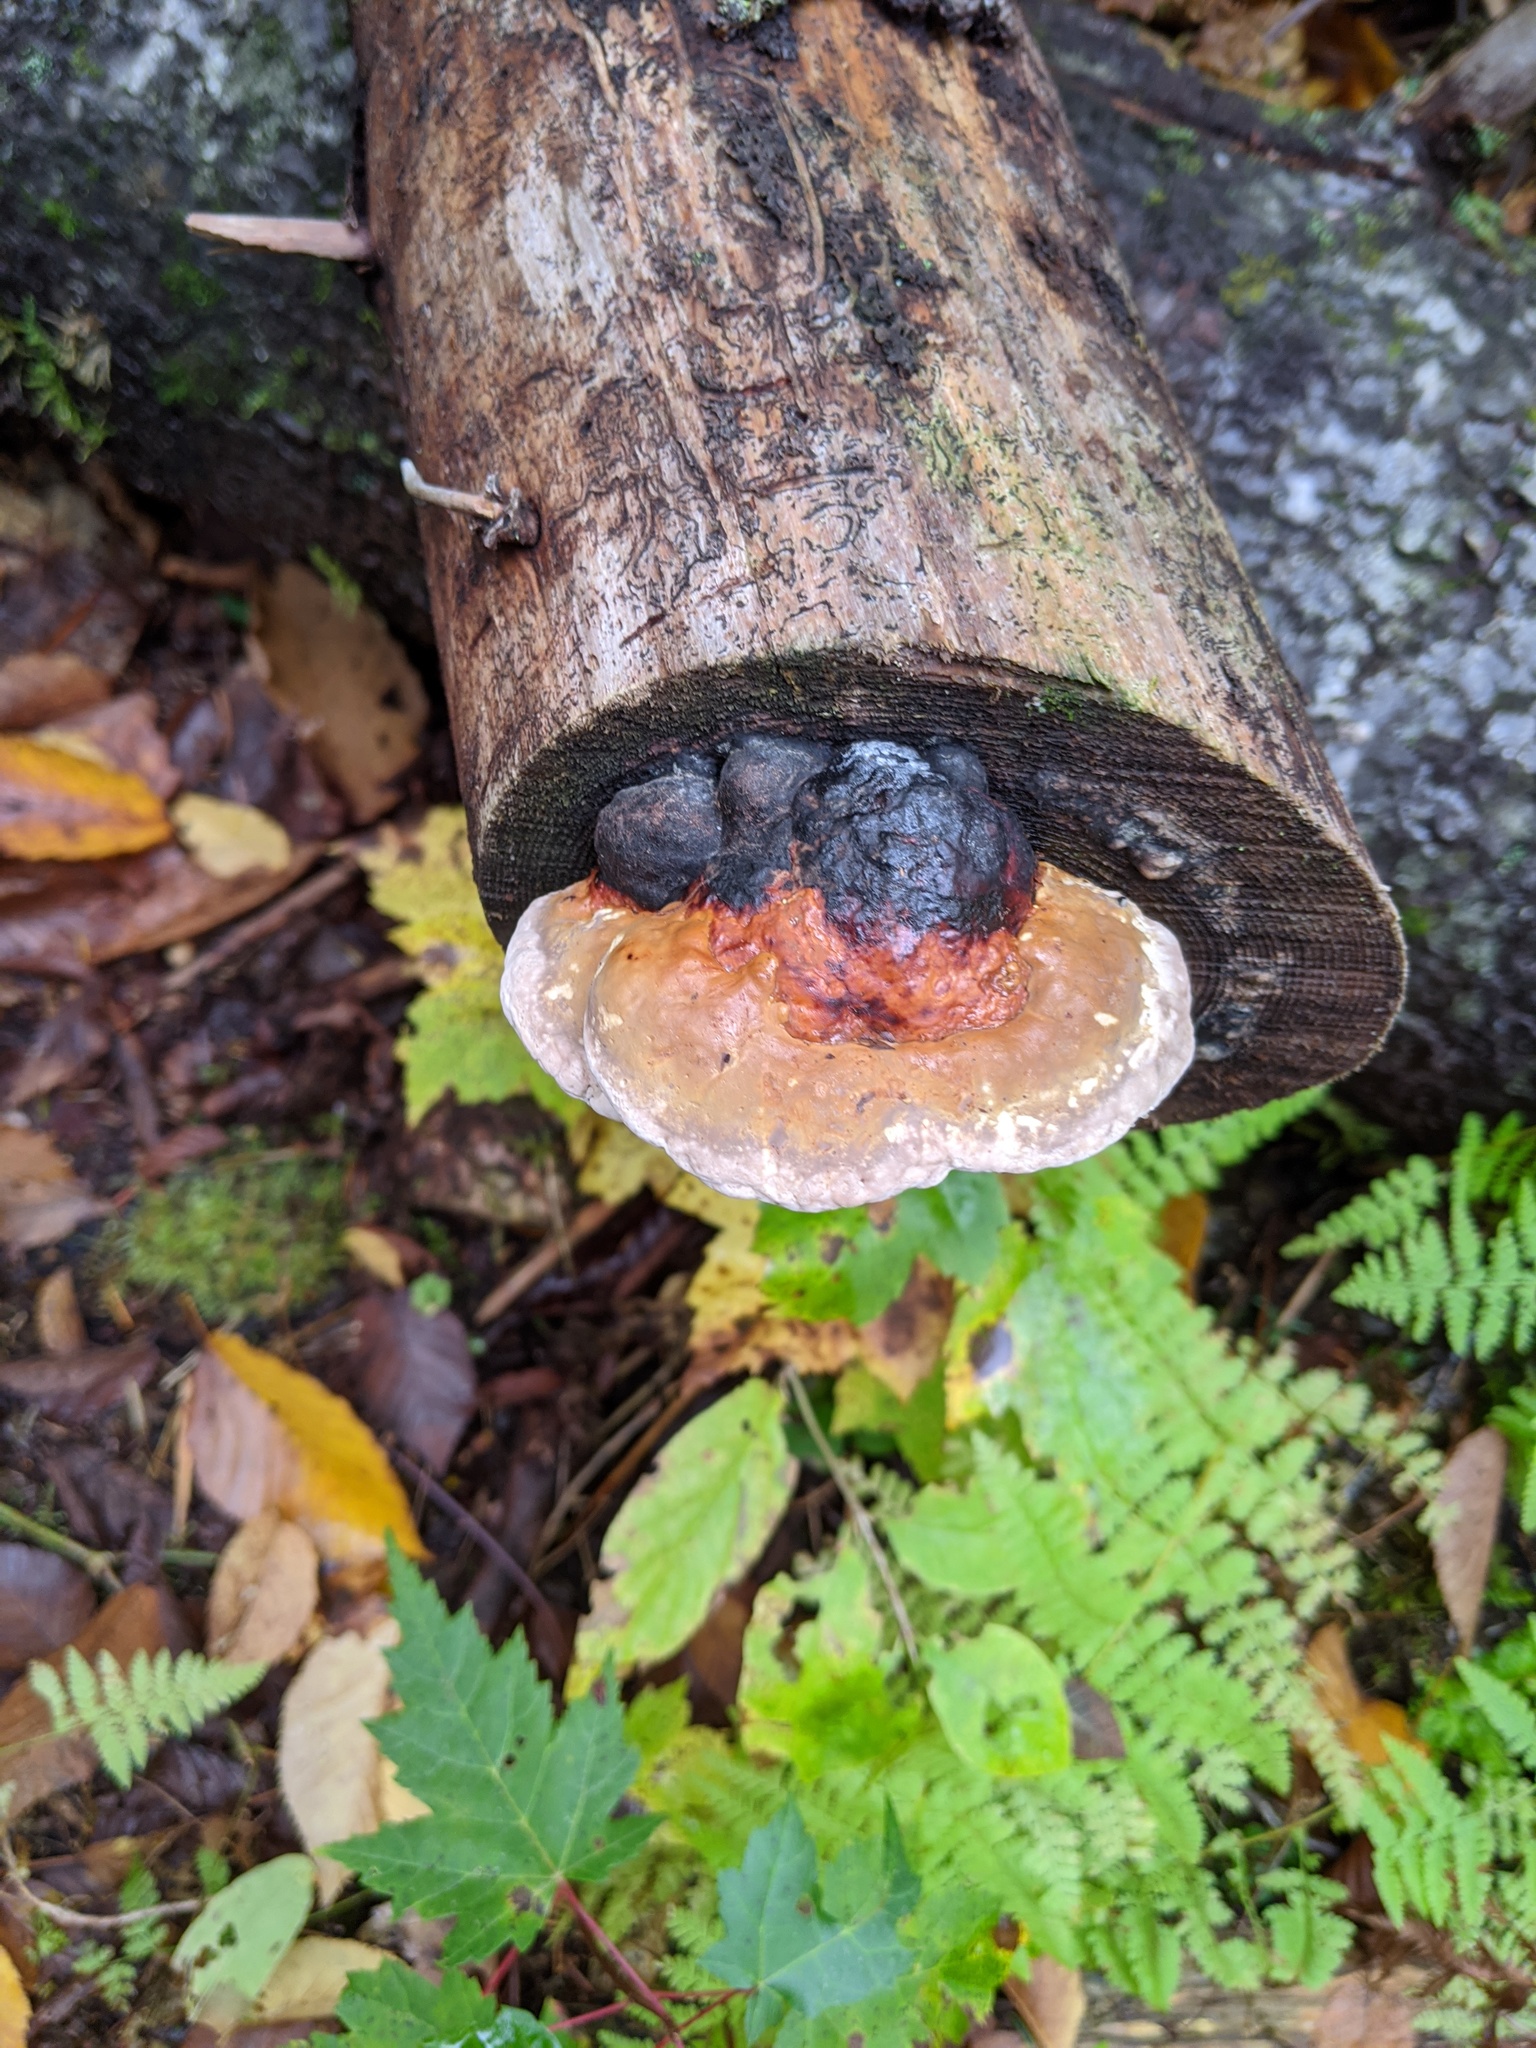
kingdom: Fungi
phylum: Basidiomycota
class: Agaricomycetes
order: Polyporales
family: Fomitopsidaceae
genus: Fomitopsis
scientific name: Fomitopsis mounceae
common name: Northern red belt
